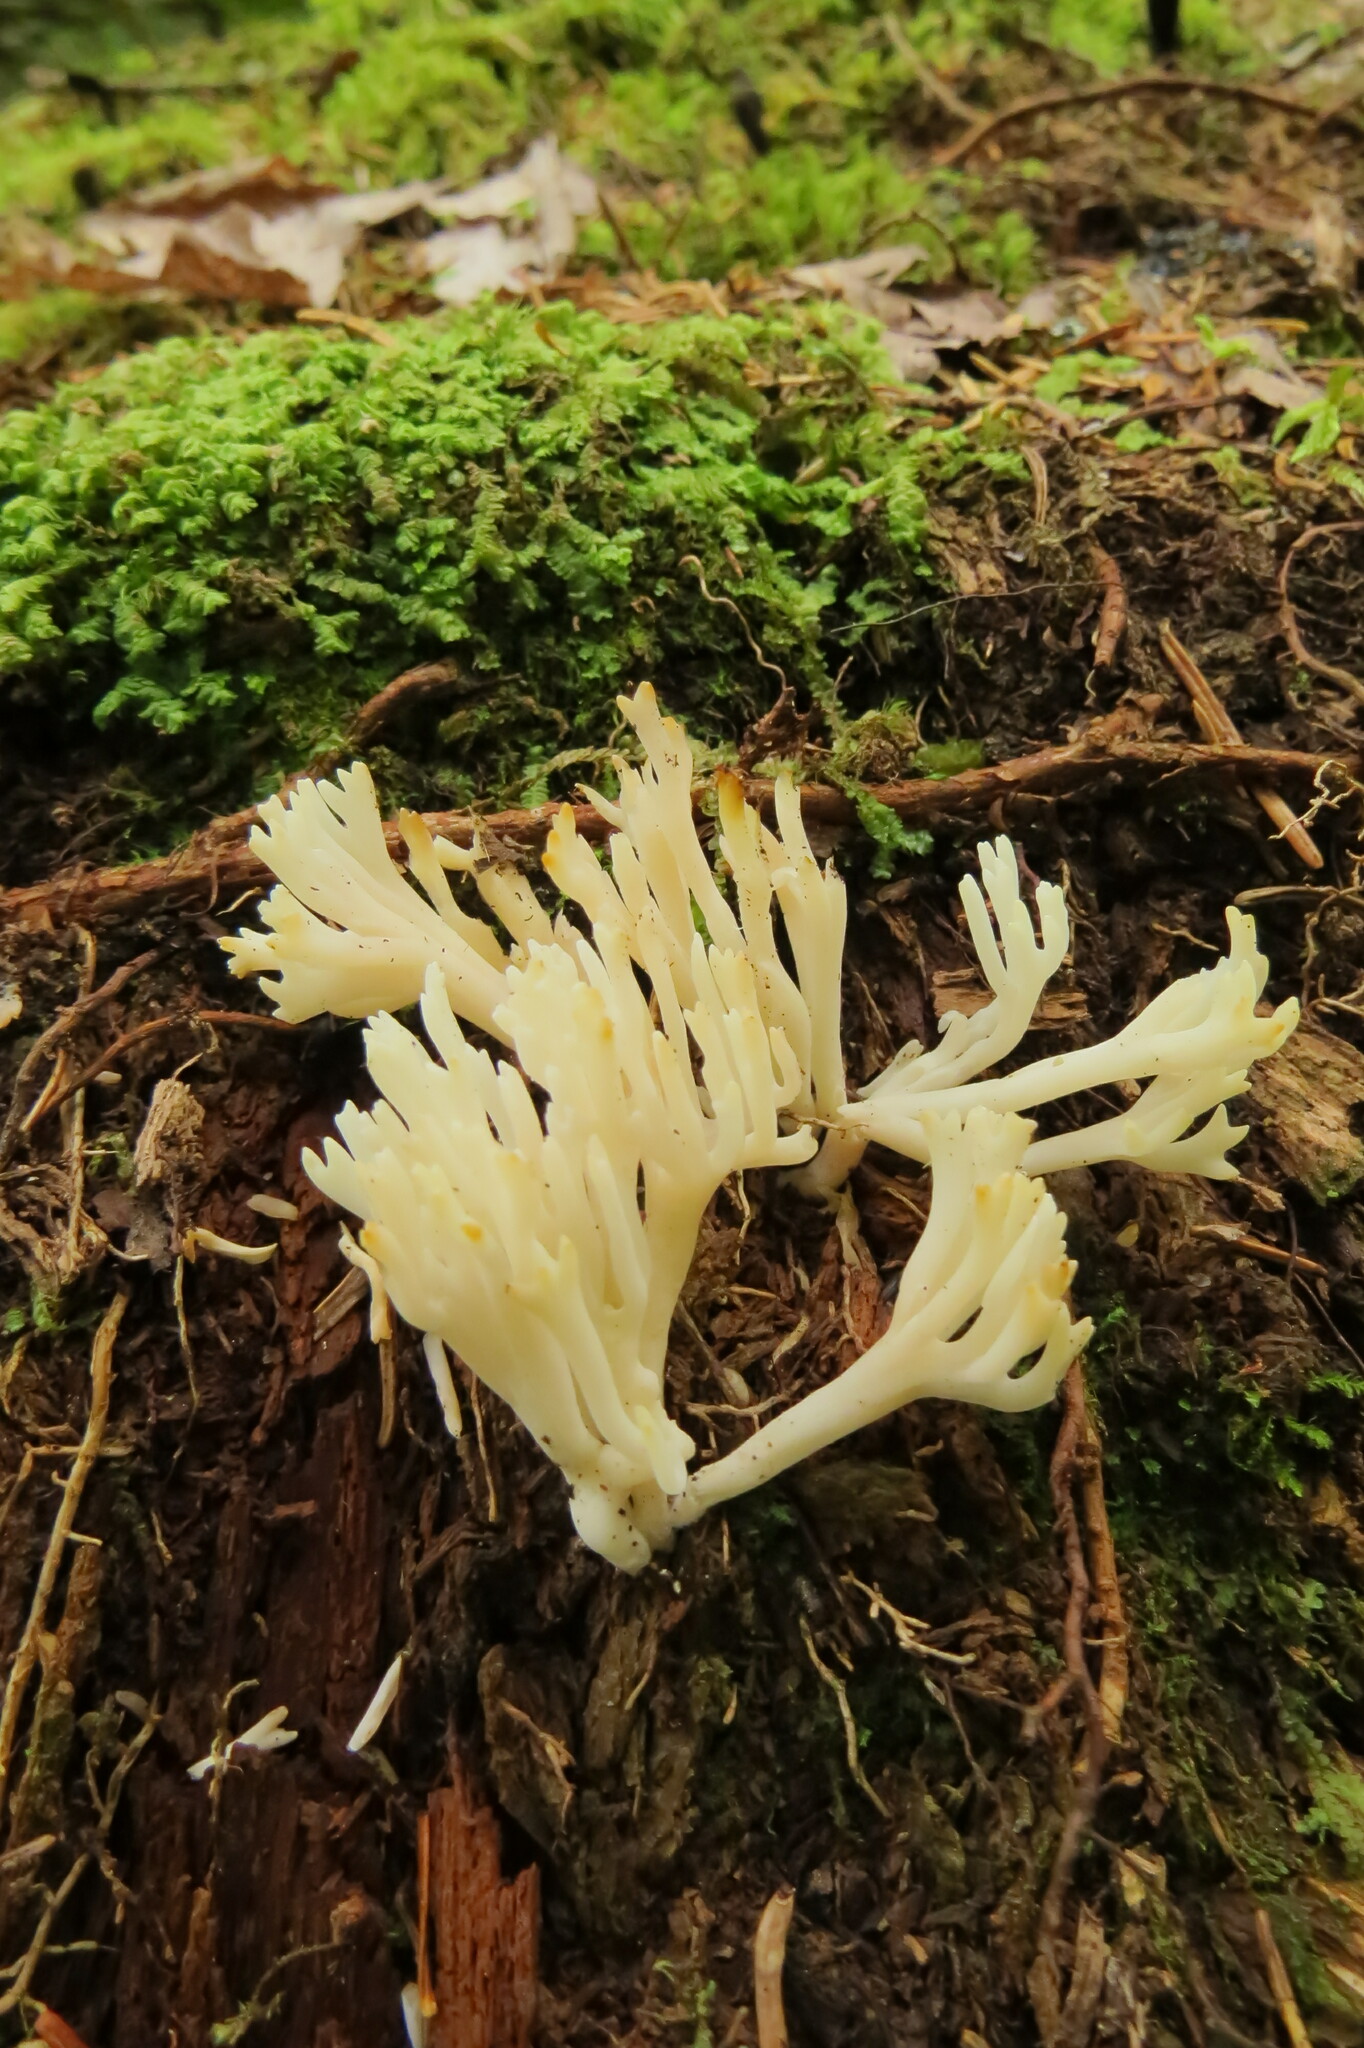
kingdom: Fungi
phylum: Basidiomycota
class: Agaricomycetes
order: Agaricales
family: Clavariaceae
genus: Ramariopsis
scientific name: Ramariopsis kunzei
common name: Ivory coral
